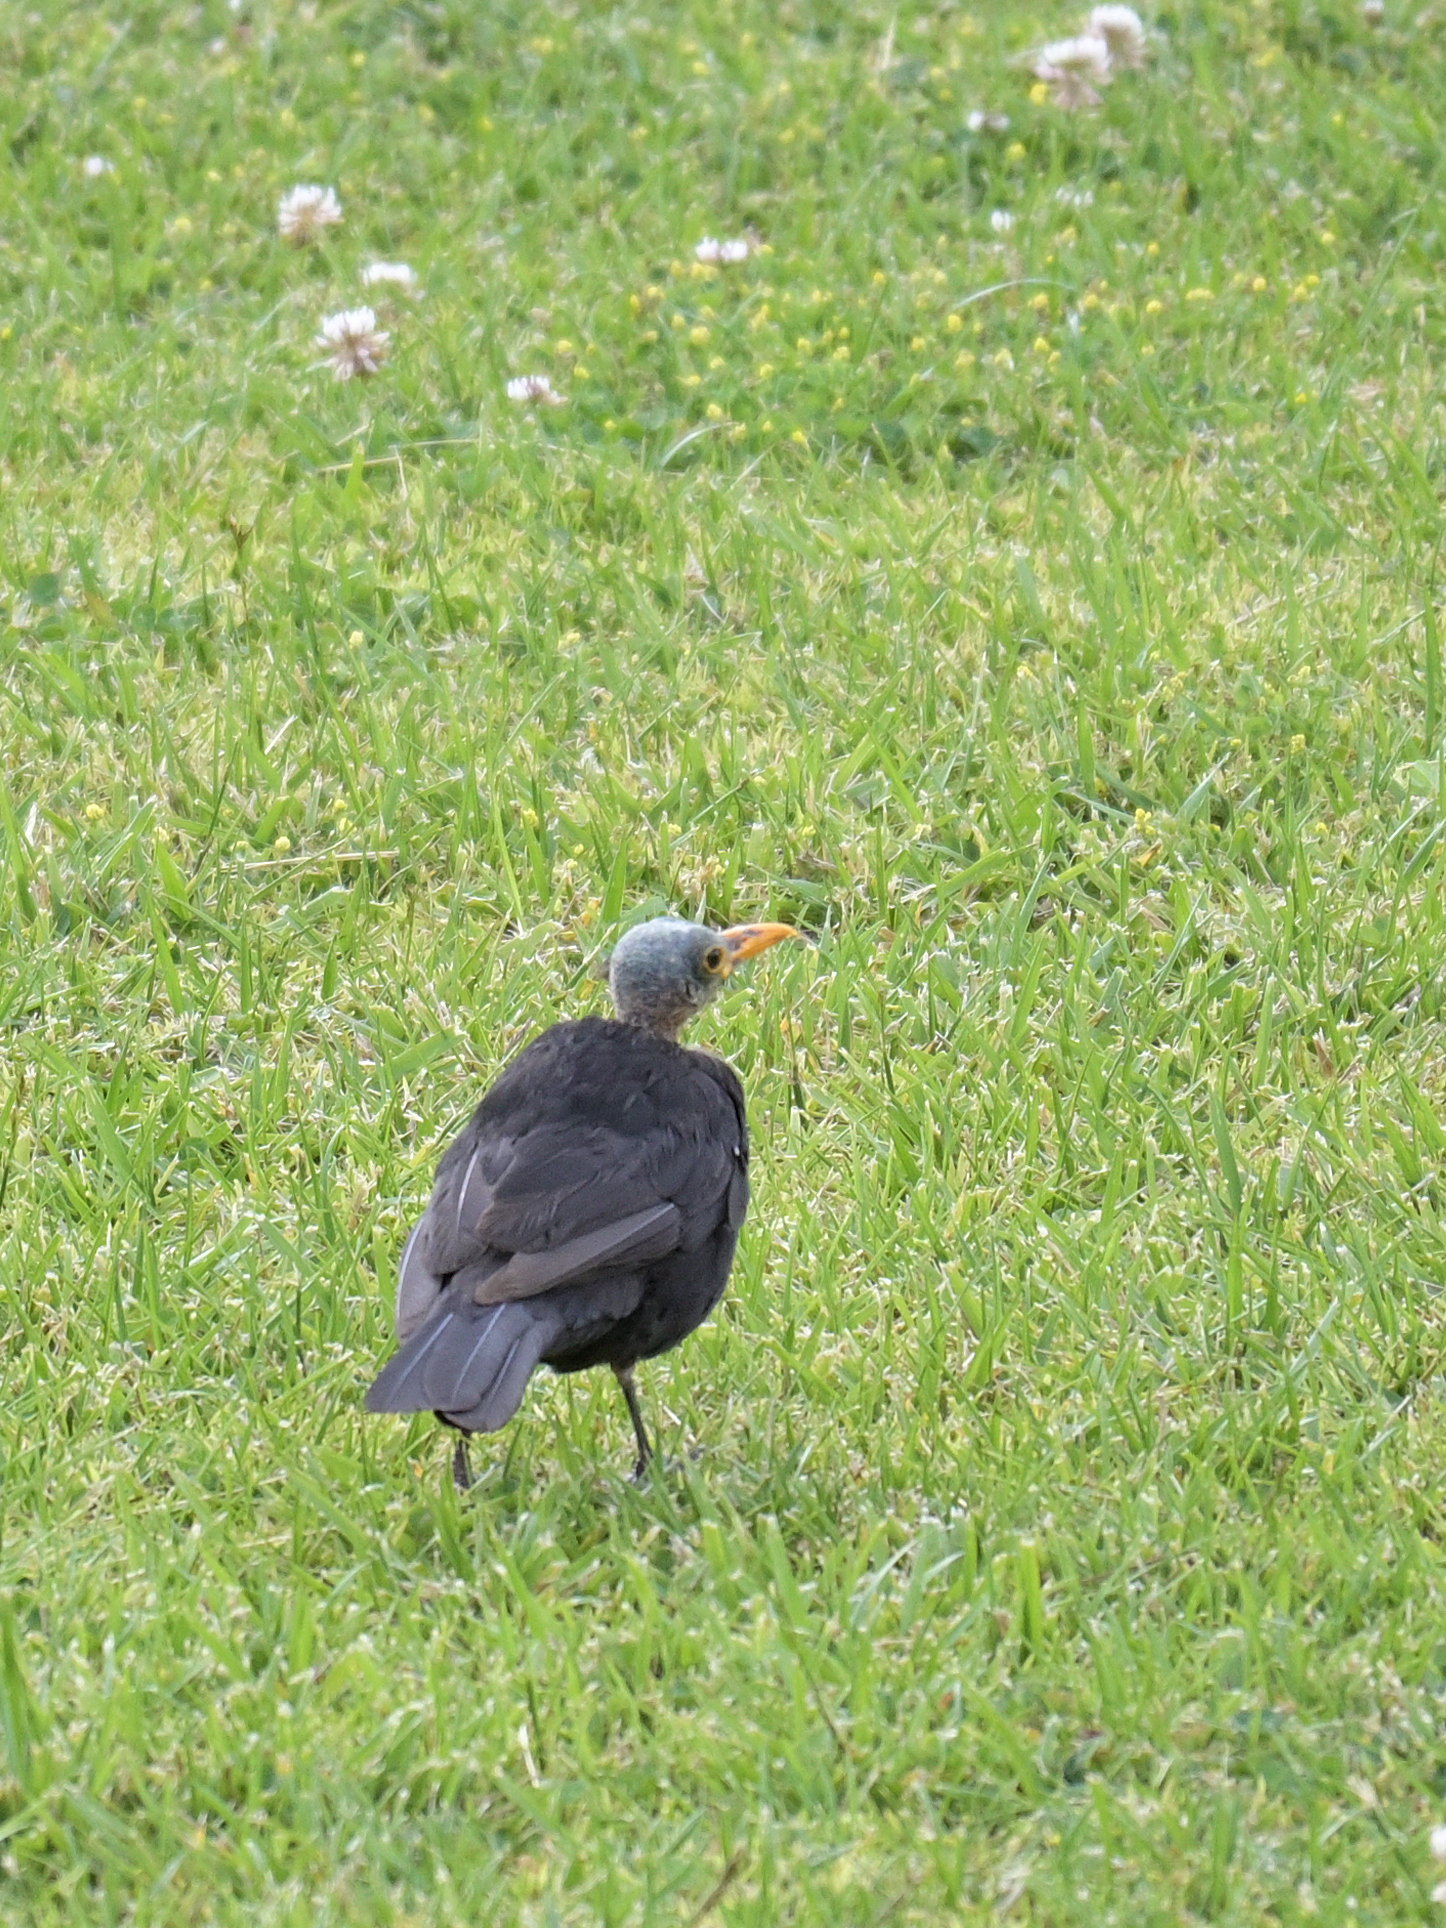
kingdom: Animalia
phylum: Chordata
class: Aves
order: Passeriformes
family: Turdidae
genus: Turdus
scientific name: Turdus merula
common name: Common blackbird
